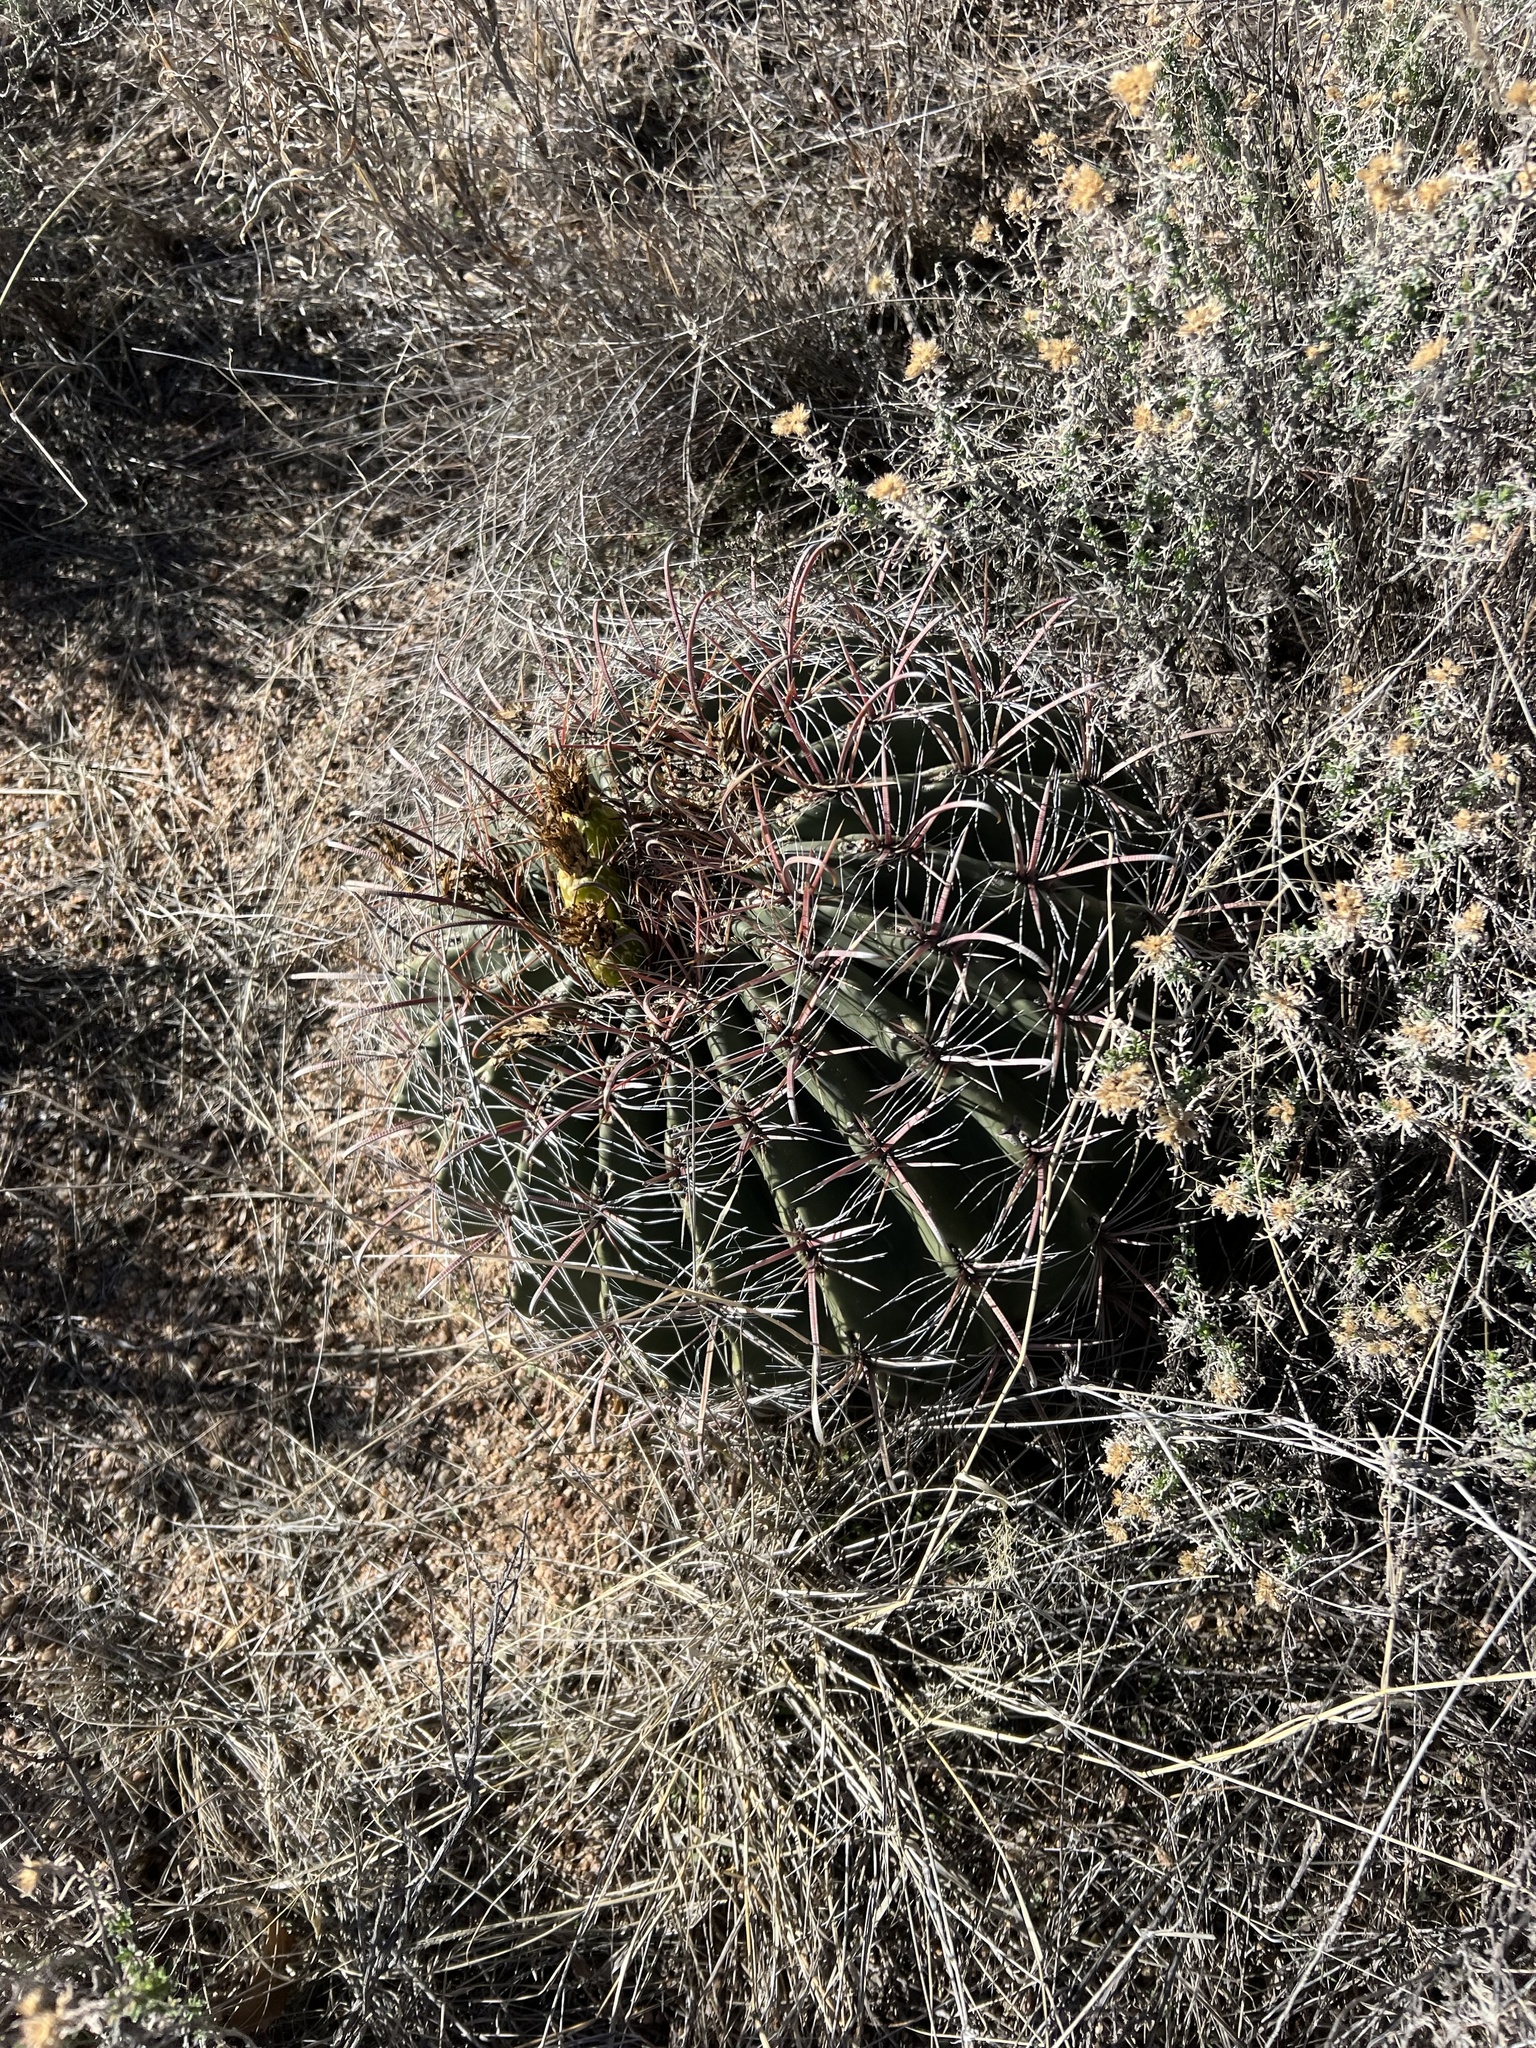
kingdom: Plantae
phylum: Tracheophyta
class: Magnoliopsida
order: Caryophyllales
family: Cactaceae
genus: Ferocactus
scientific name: Ferocactus wislizeni
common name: Candy barrel cactus
